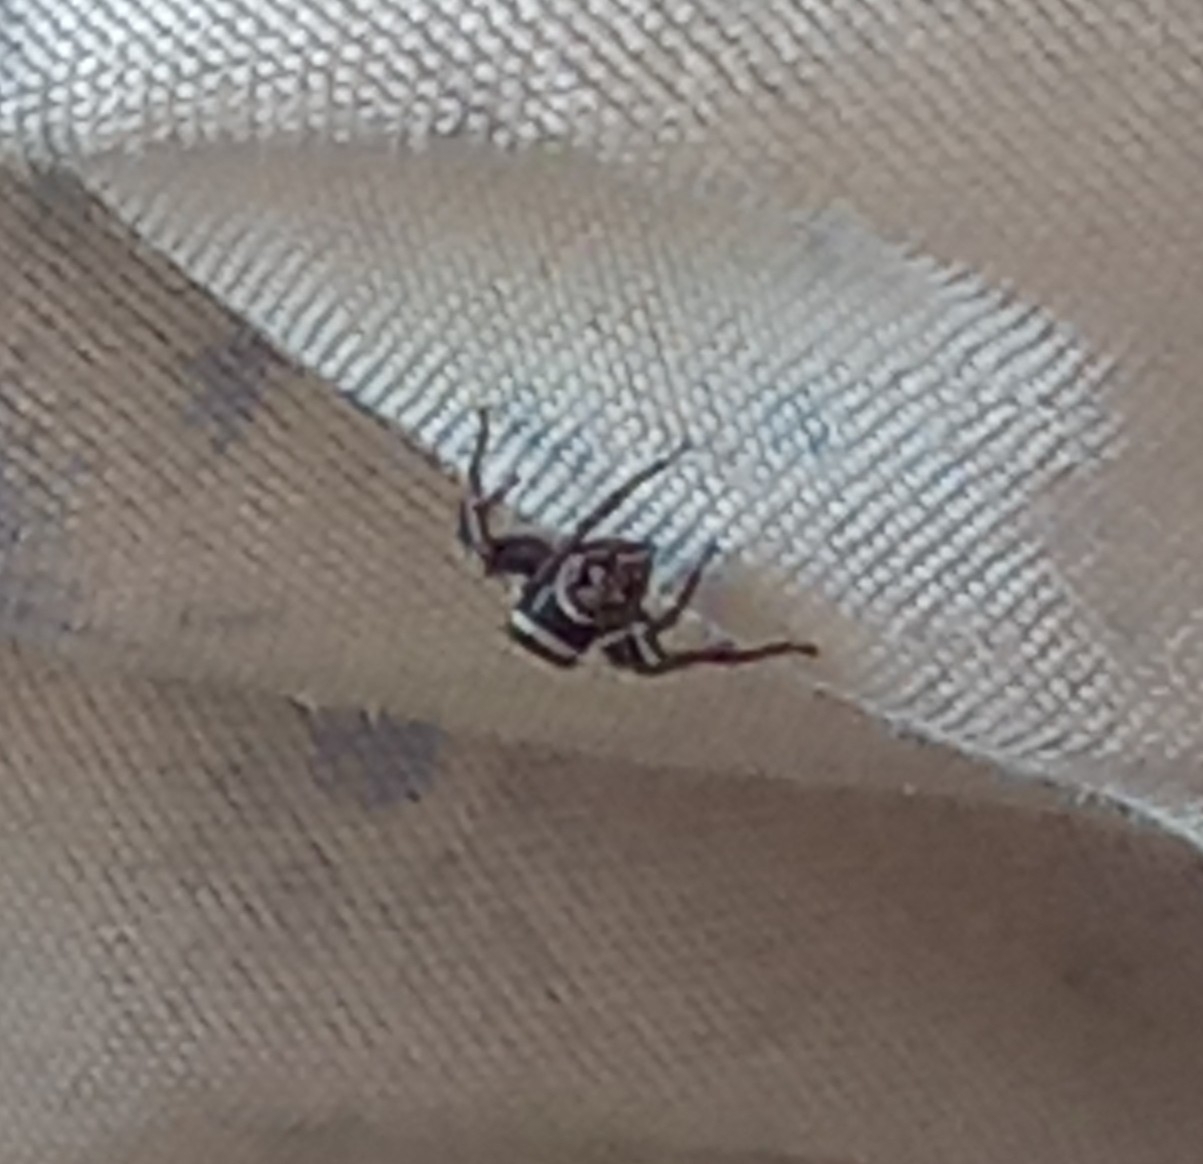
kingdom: Animalia
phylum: Arthropoda
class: Arachnida
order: Araneae
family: Salticidae
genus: Hasarius
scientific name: Hasarius adansoni
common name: Jumping spider
